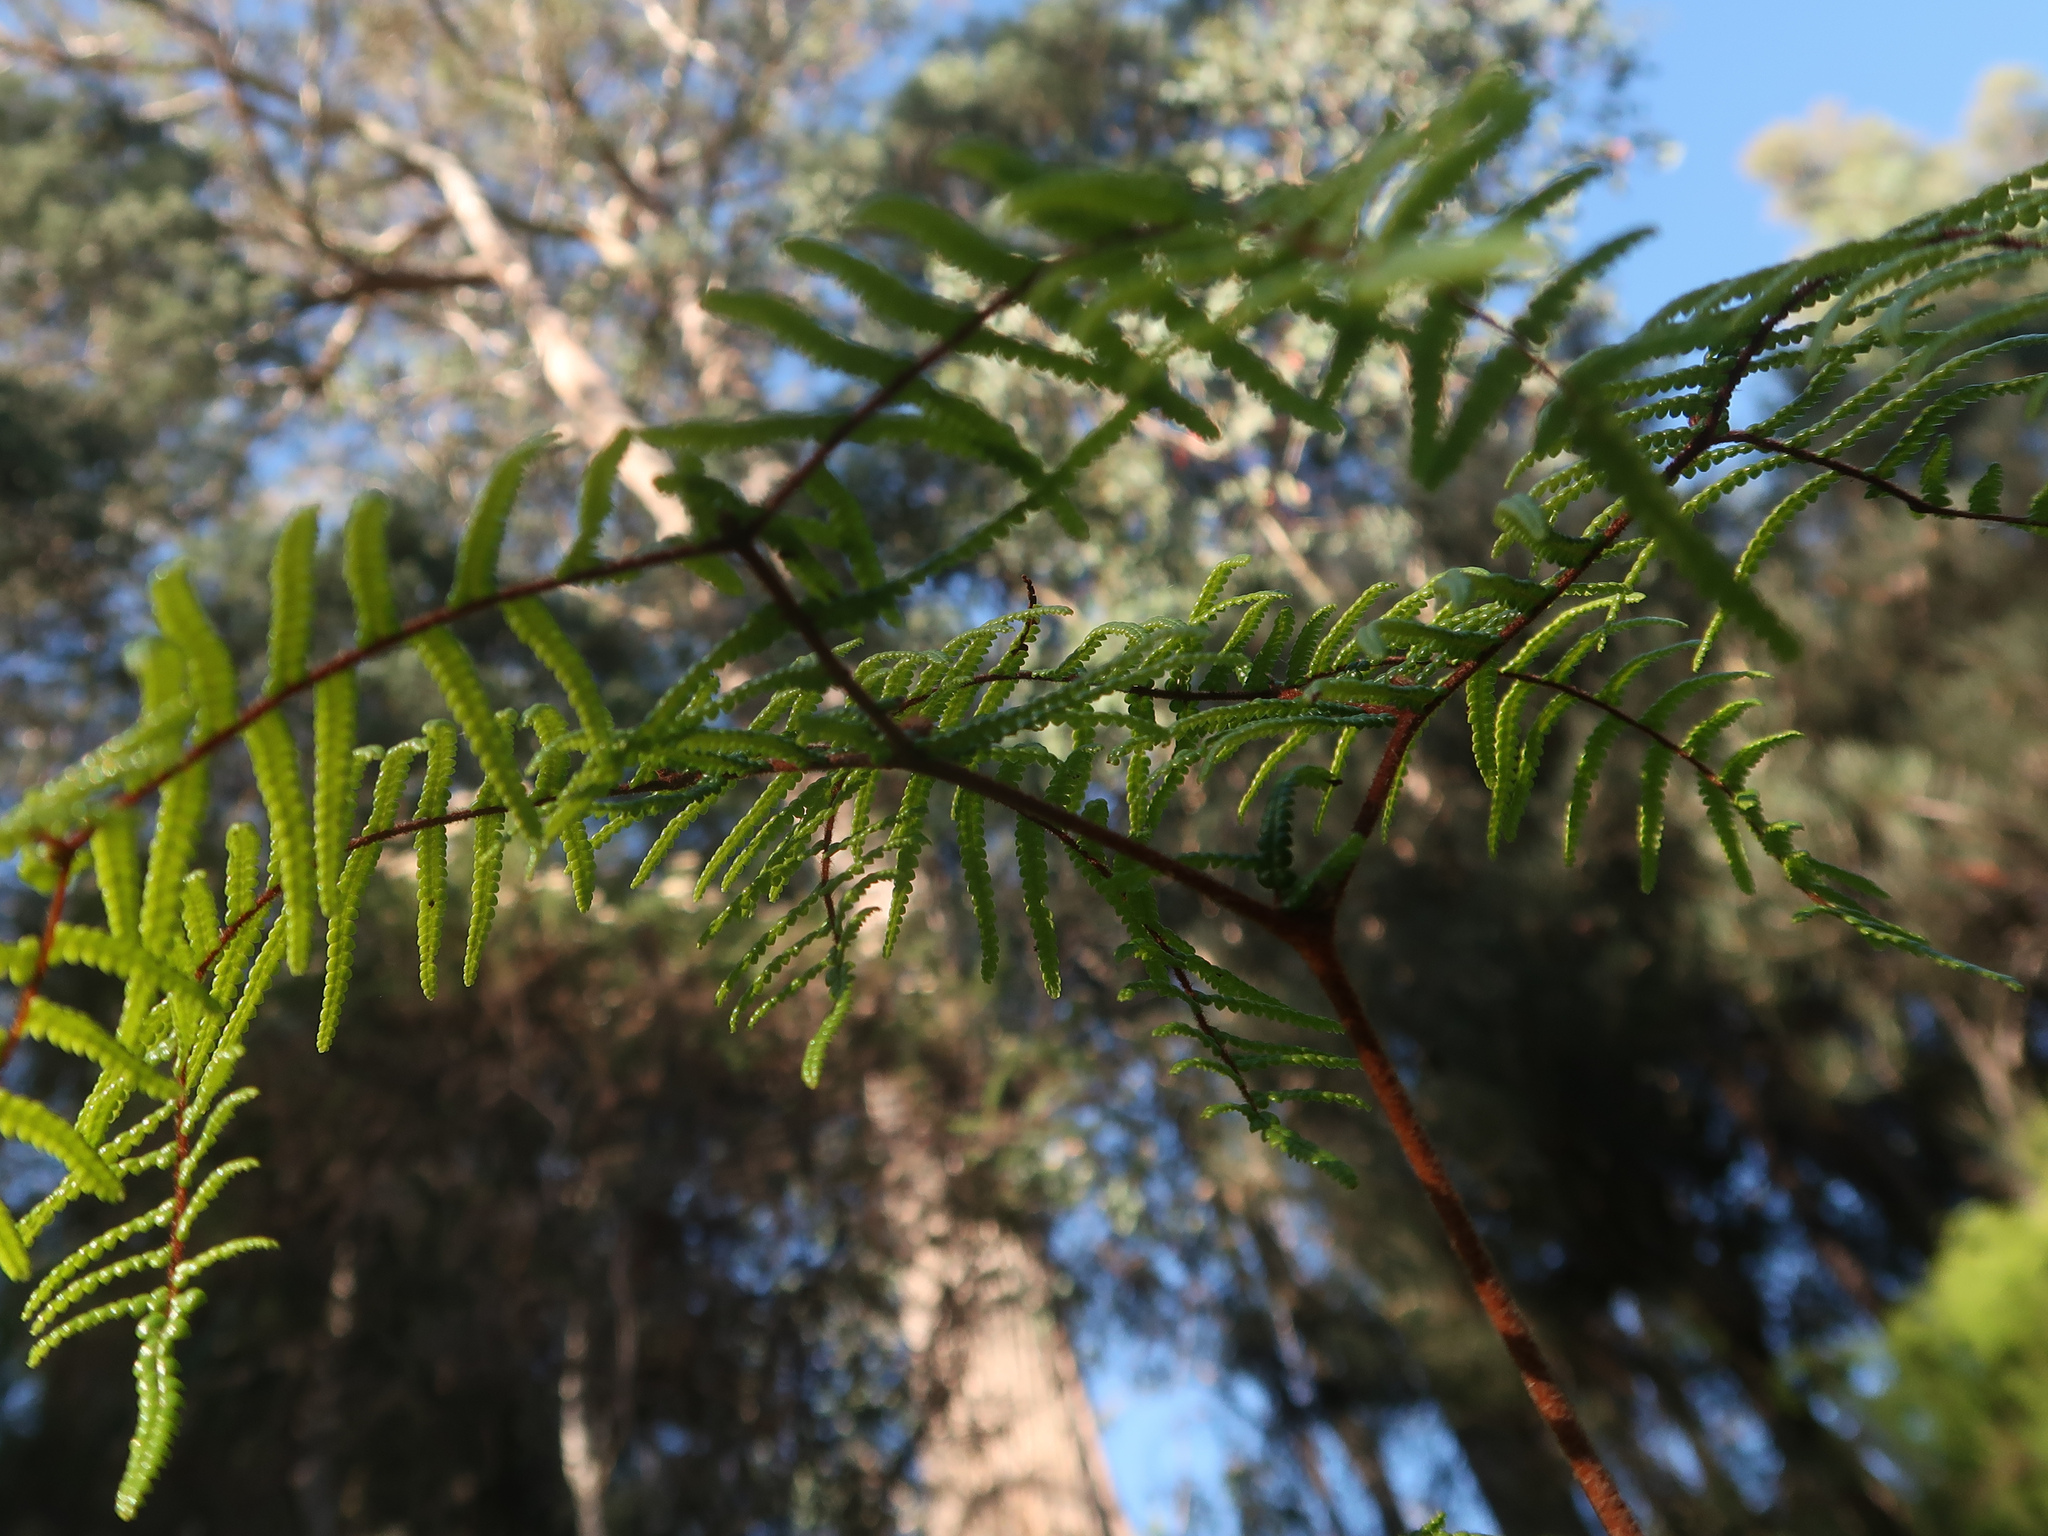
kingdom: Plantae
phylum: Tracheophyta
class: Polypodiopsida
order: Gleicheniales
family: Gleicheniaceae
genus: Gleichenia
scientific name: Gleichenia microphylla
